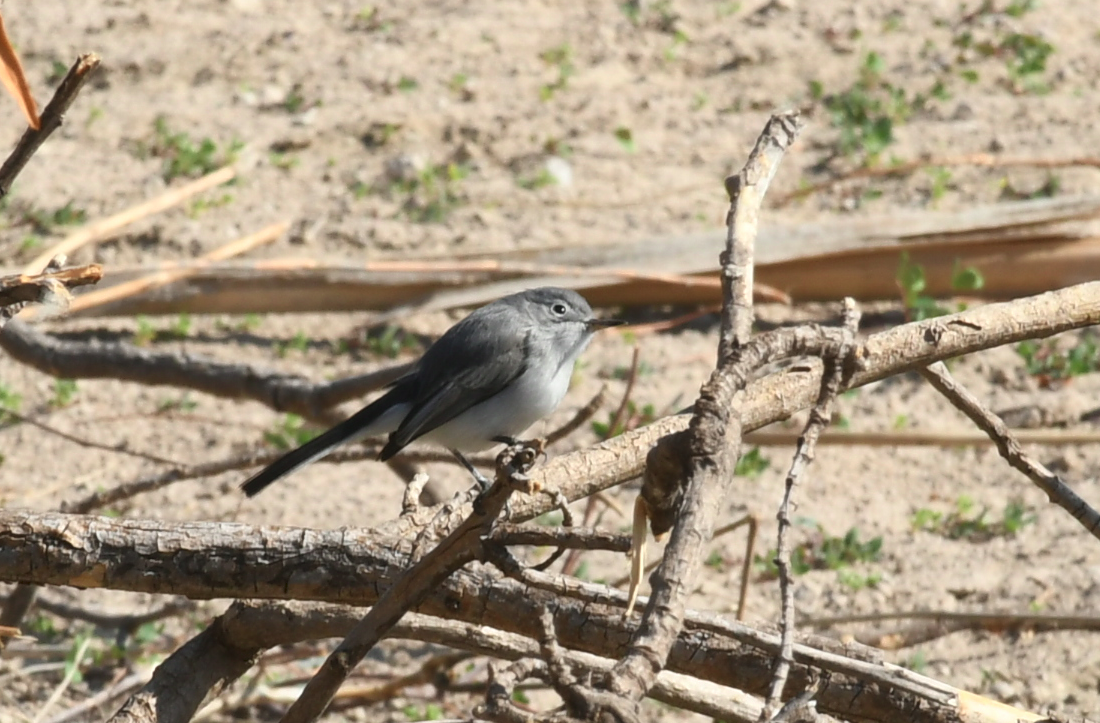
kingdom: Animalia
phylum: Chordata
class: Aves
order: Passeriformes
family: Polioptilidae
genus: Polioptila
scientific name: Polioptila caerulea
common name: Blue-gray gnatcatcher
